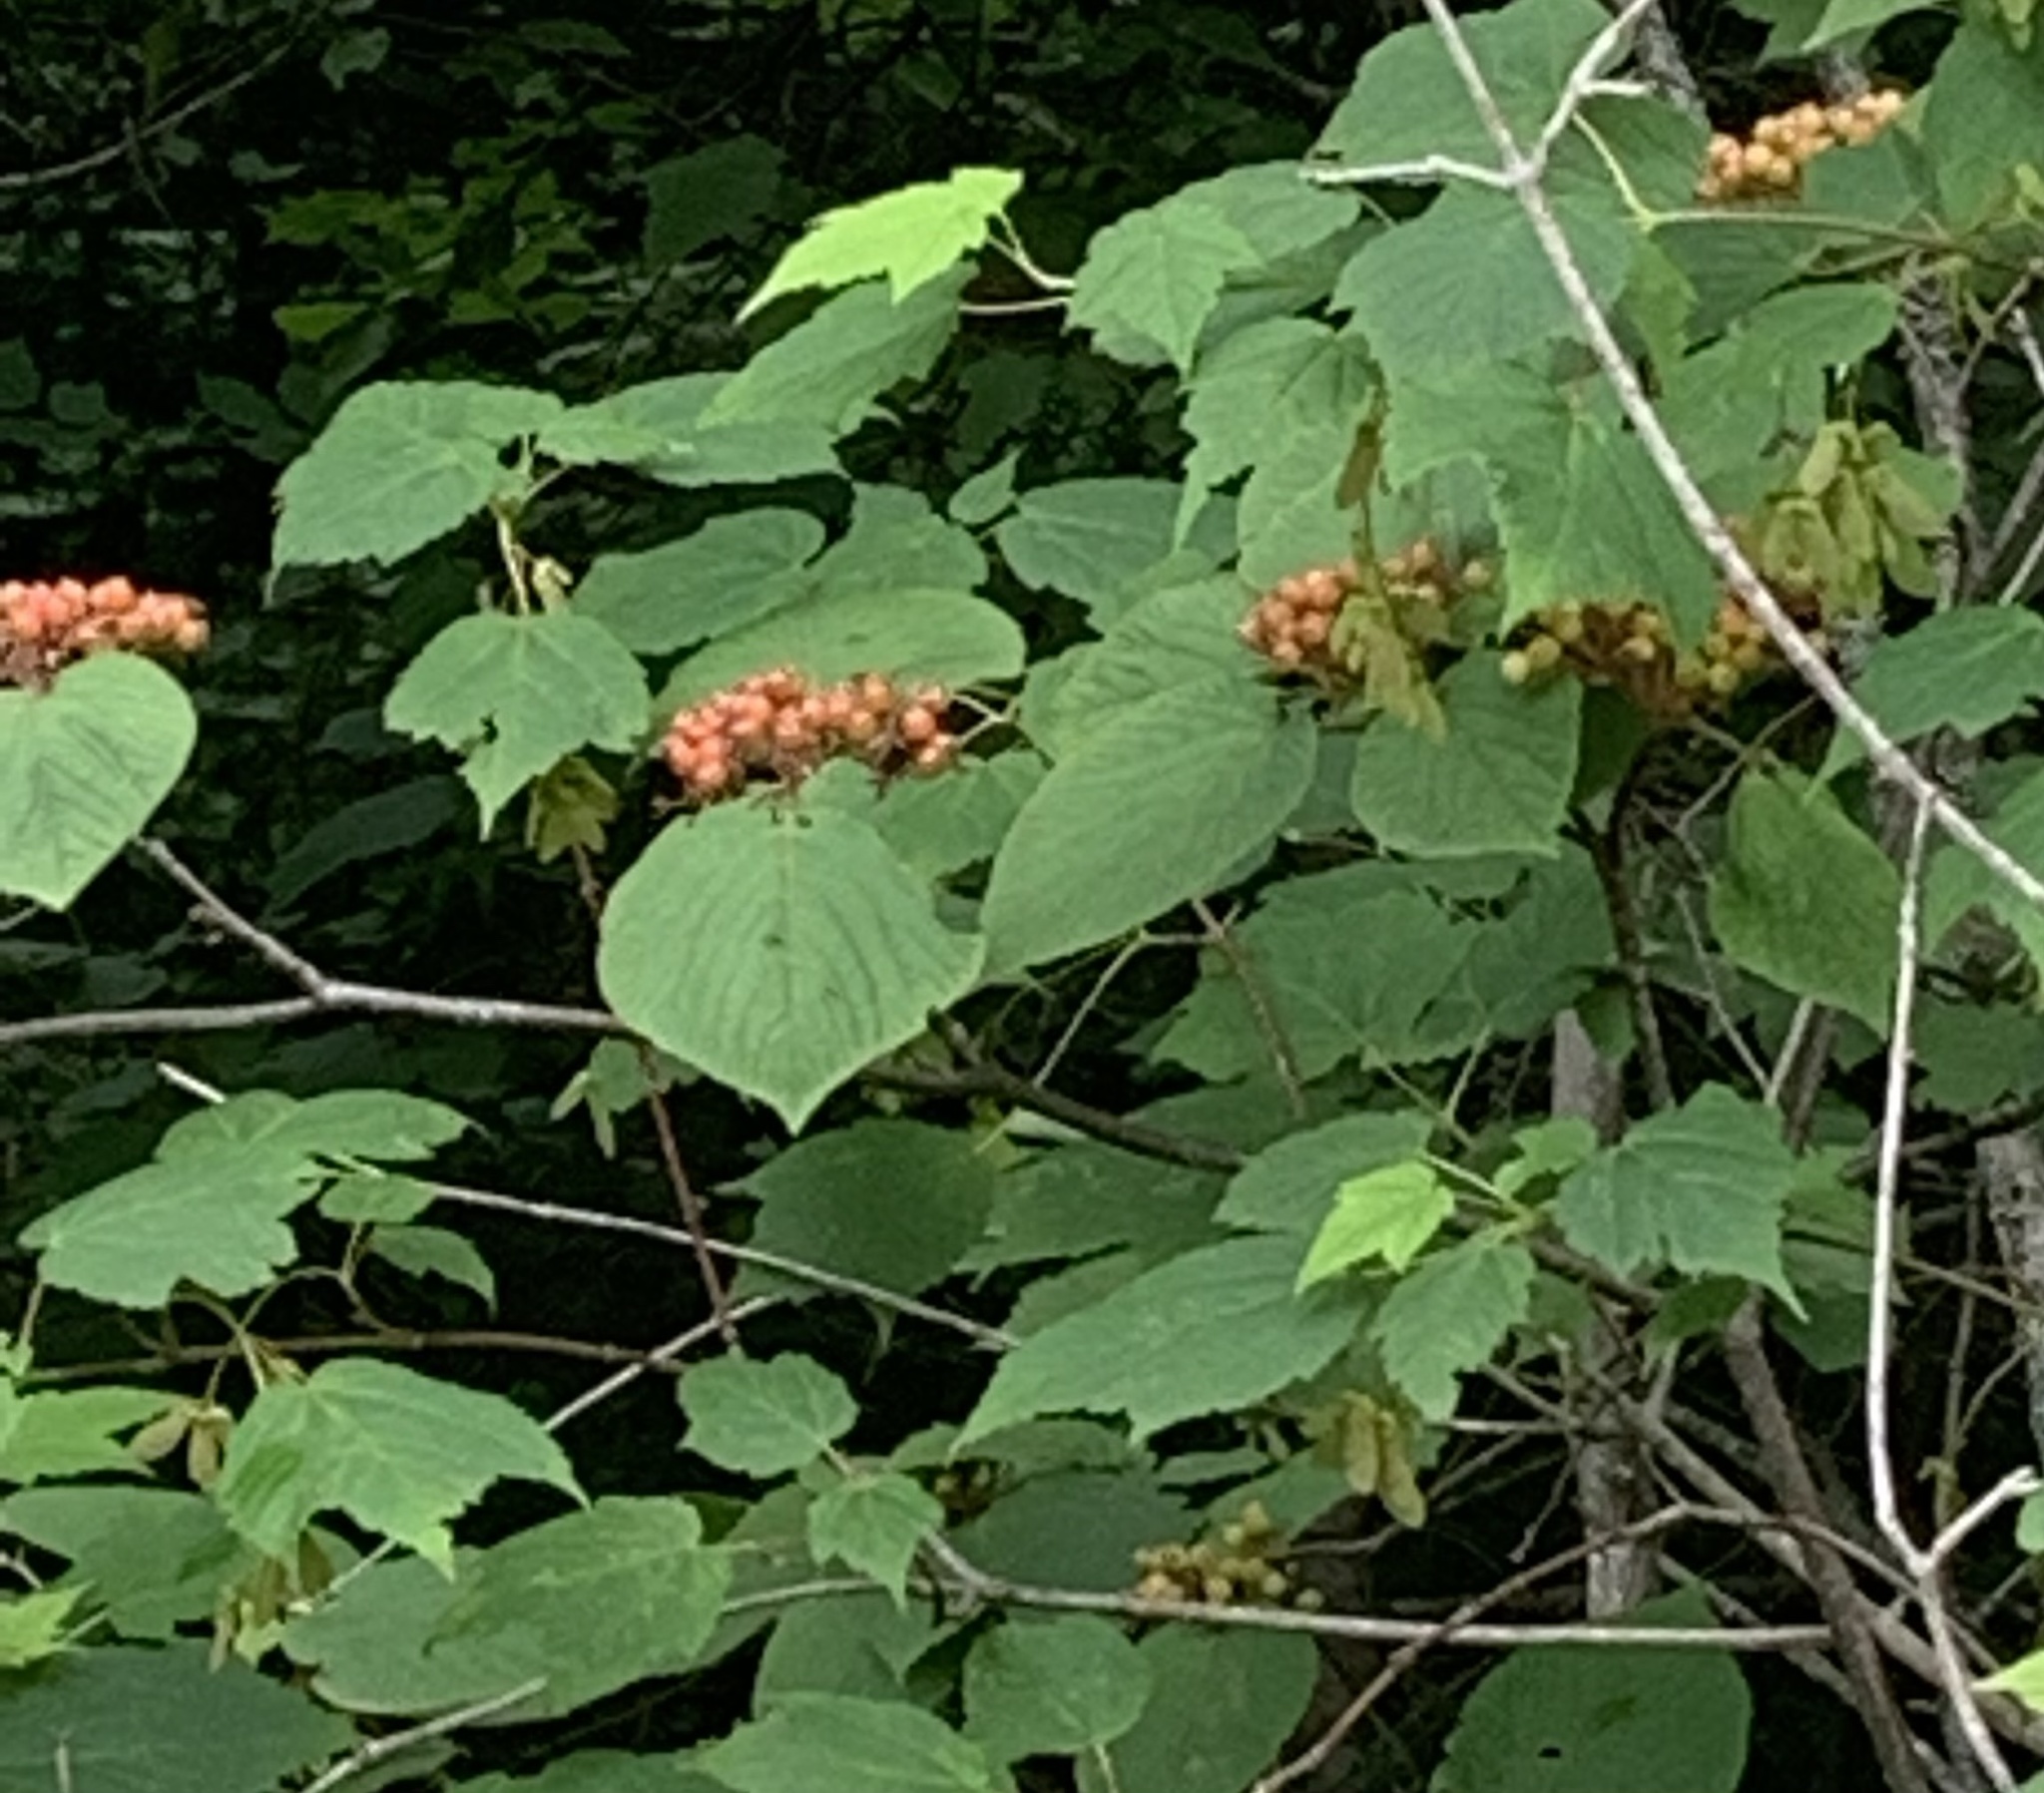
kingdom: Plantae
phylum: Tracheophyta
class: Magnoliopsida
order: Dipsacales
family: Viburnaceae
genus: Viburnum
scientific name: Viburnum lantanoides
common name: Hobblebush
